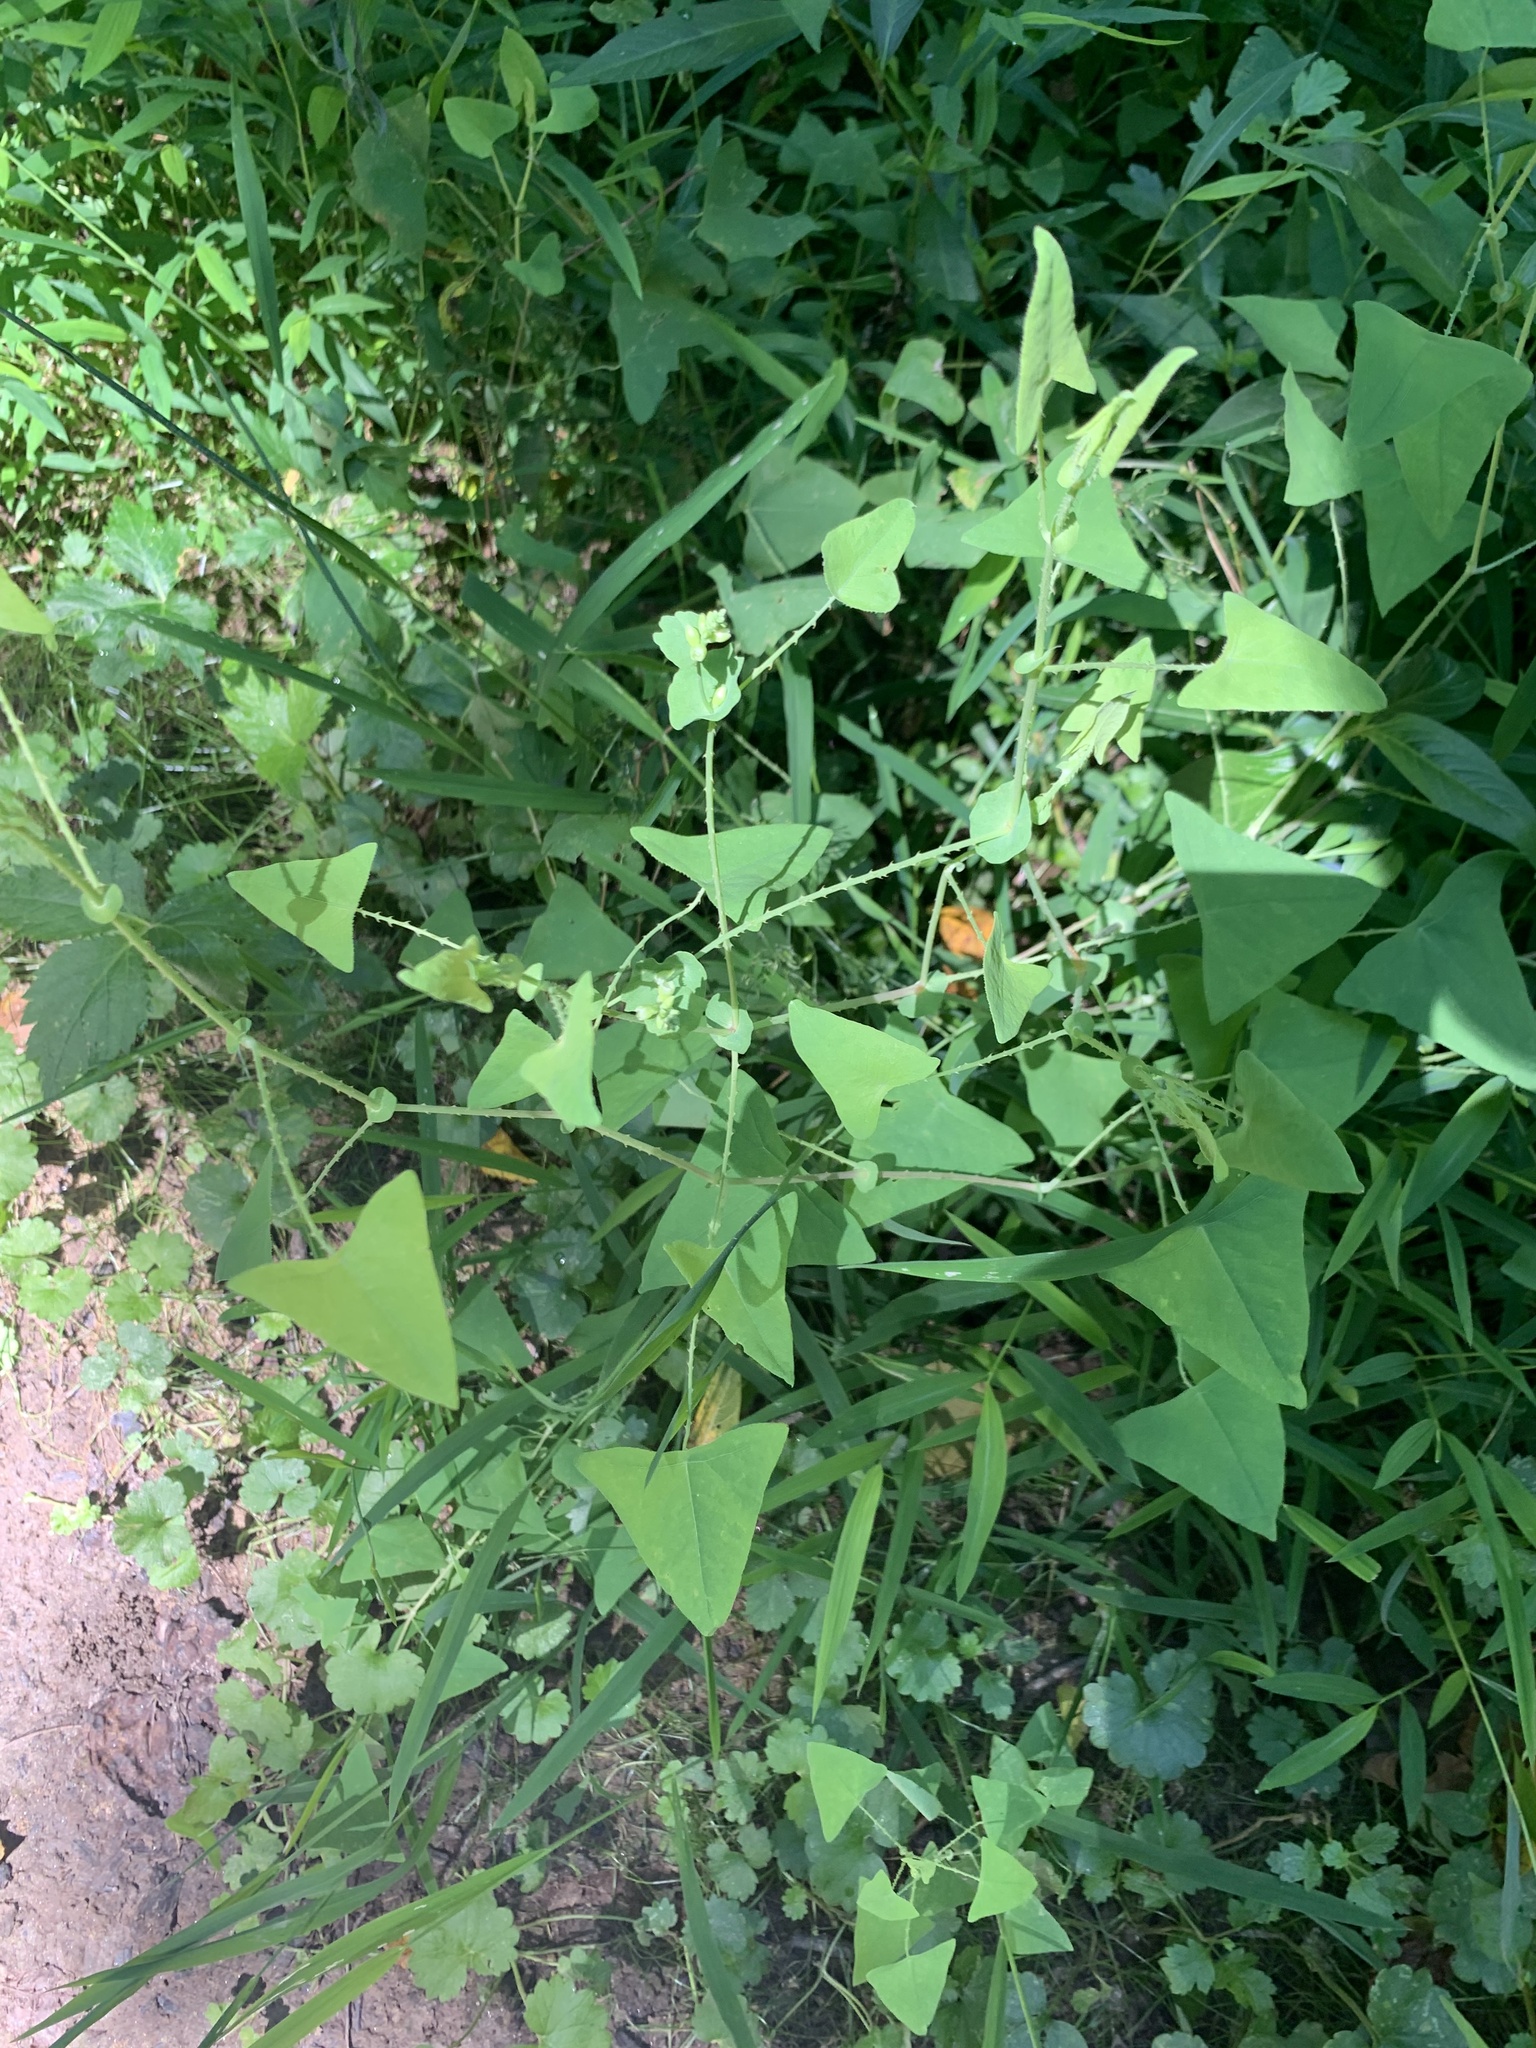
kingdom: Plantae
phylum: Tracheophyta
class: Magnoliopsida
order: Caryophyllales
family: Polygonaceae
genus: Persicaria
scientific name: Persicaria perfoliata
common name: Asiatic tearthumb
